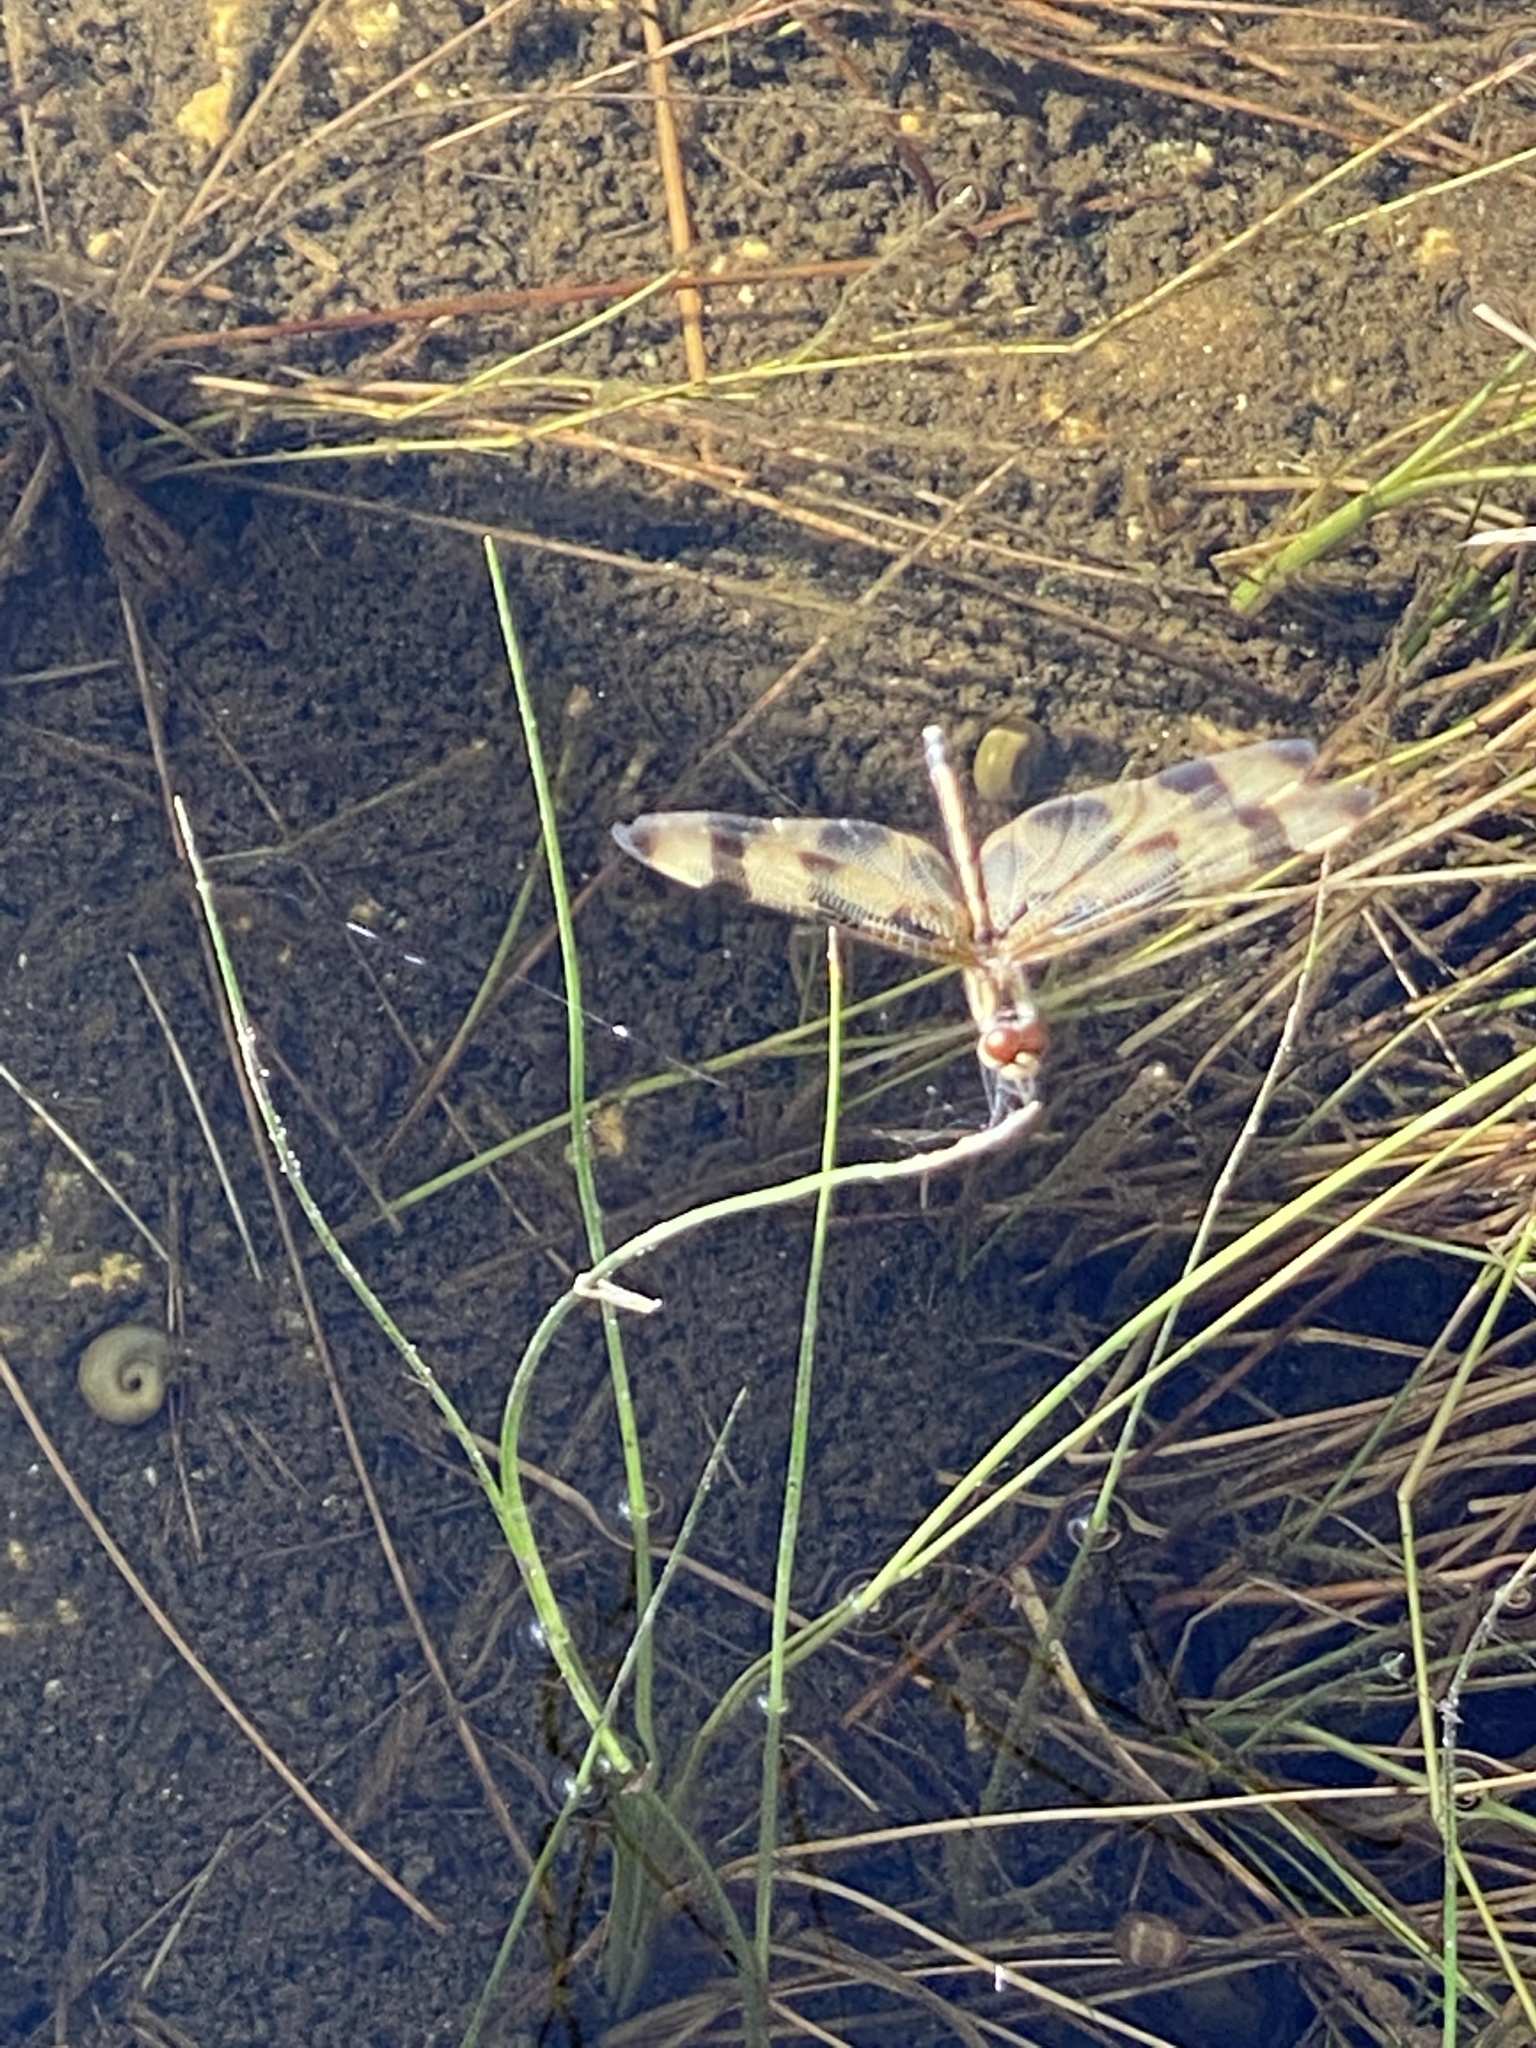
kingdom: Animalia
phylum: Arthropoda
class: Insecta
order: Odonata
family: Libellulidae
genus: Celithemis
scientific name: Celithemis eponina
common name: Halloween pennant
